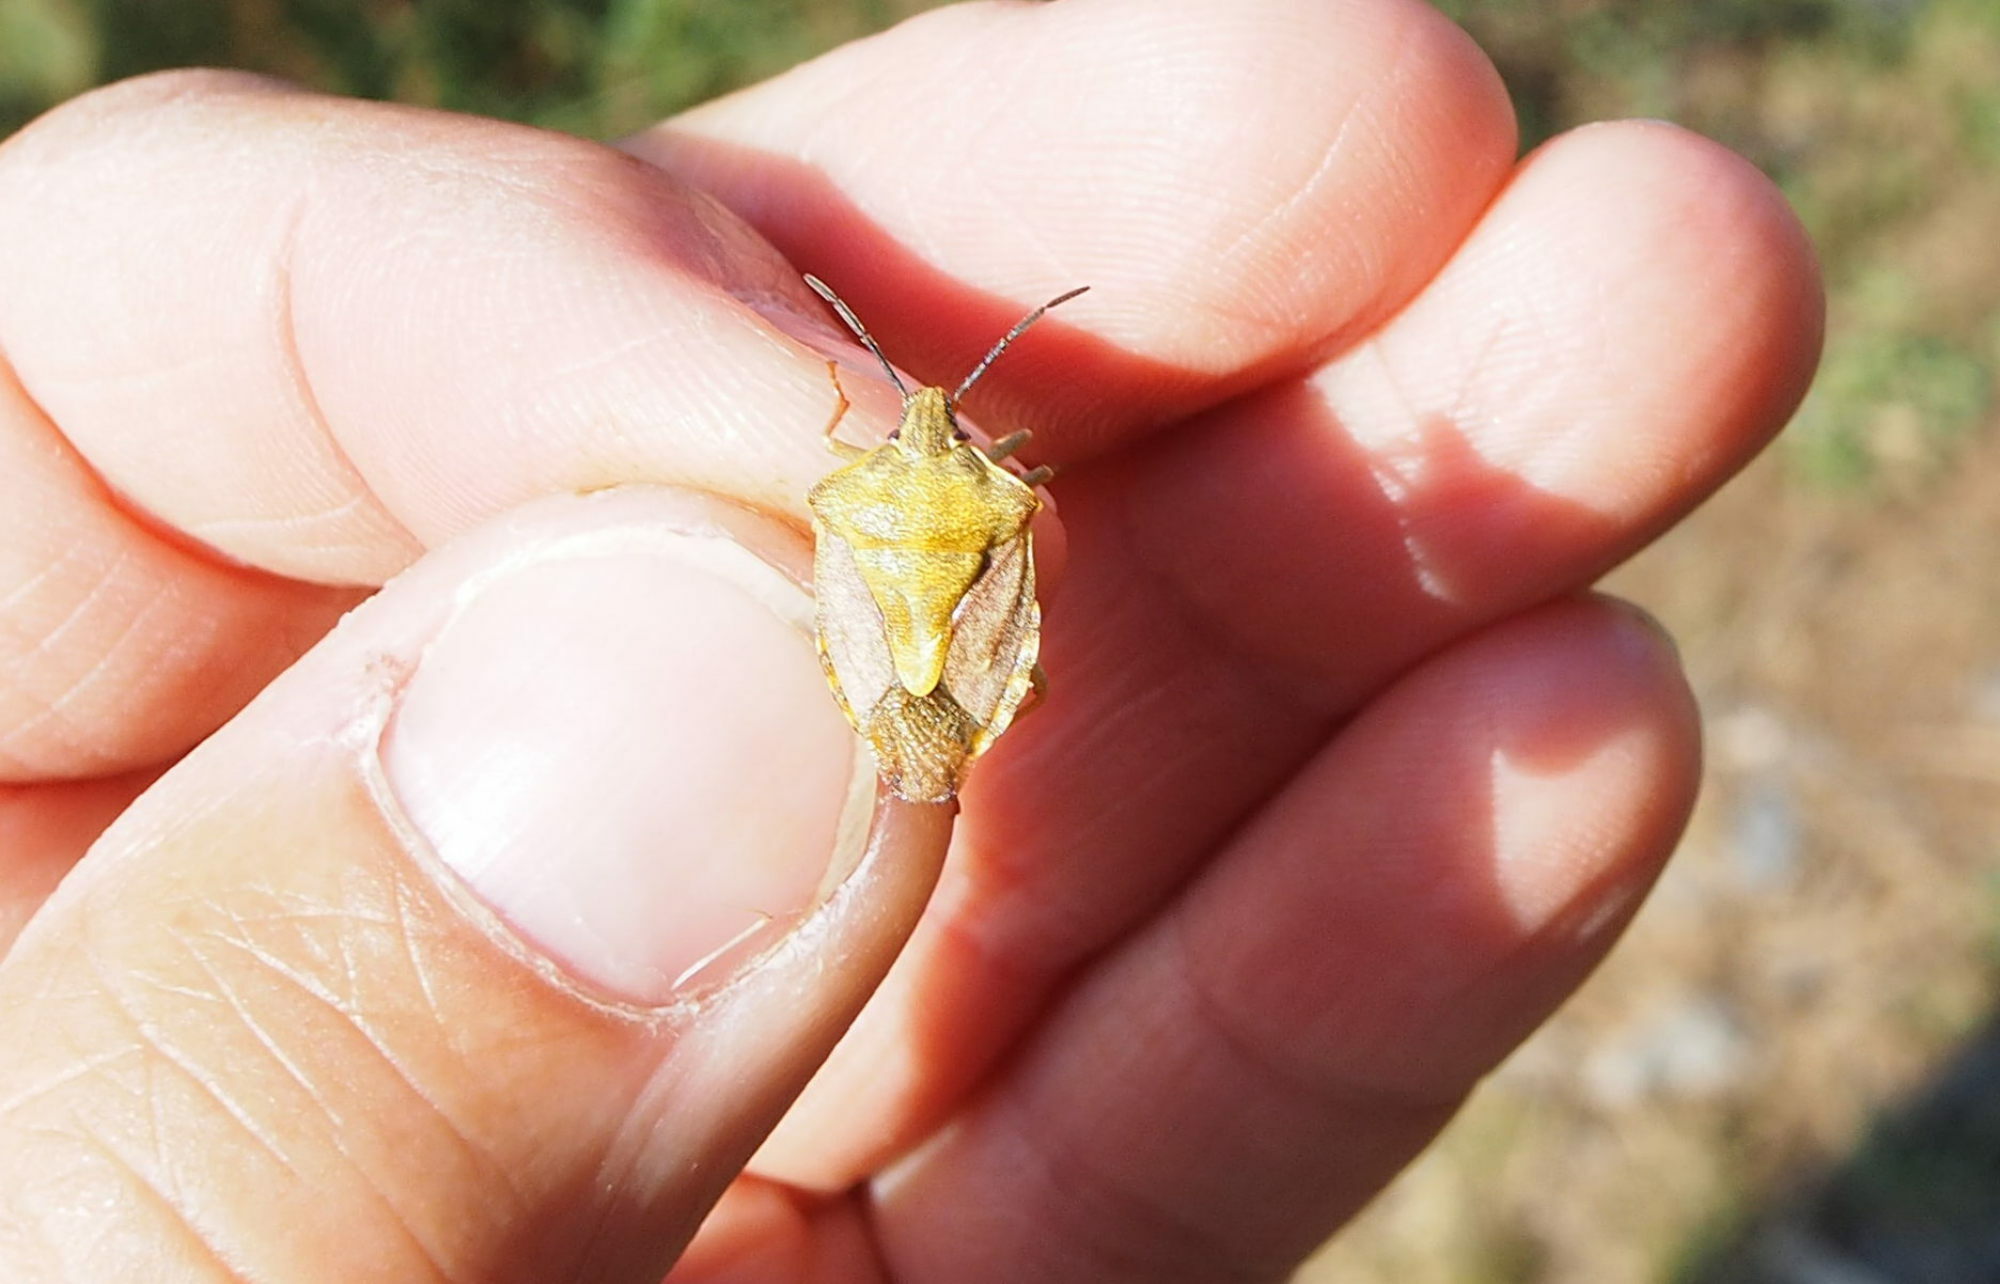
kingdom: Animalia
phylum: Arthropoda
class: Insecta
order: Hemiptera
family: Pentatomidae
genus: Carpocoris
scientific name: Carpocoris purpureipennis
